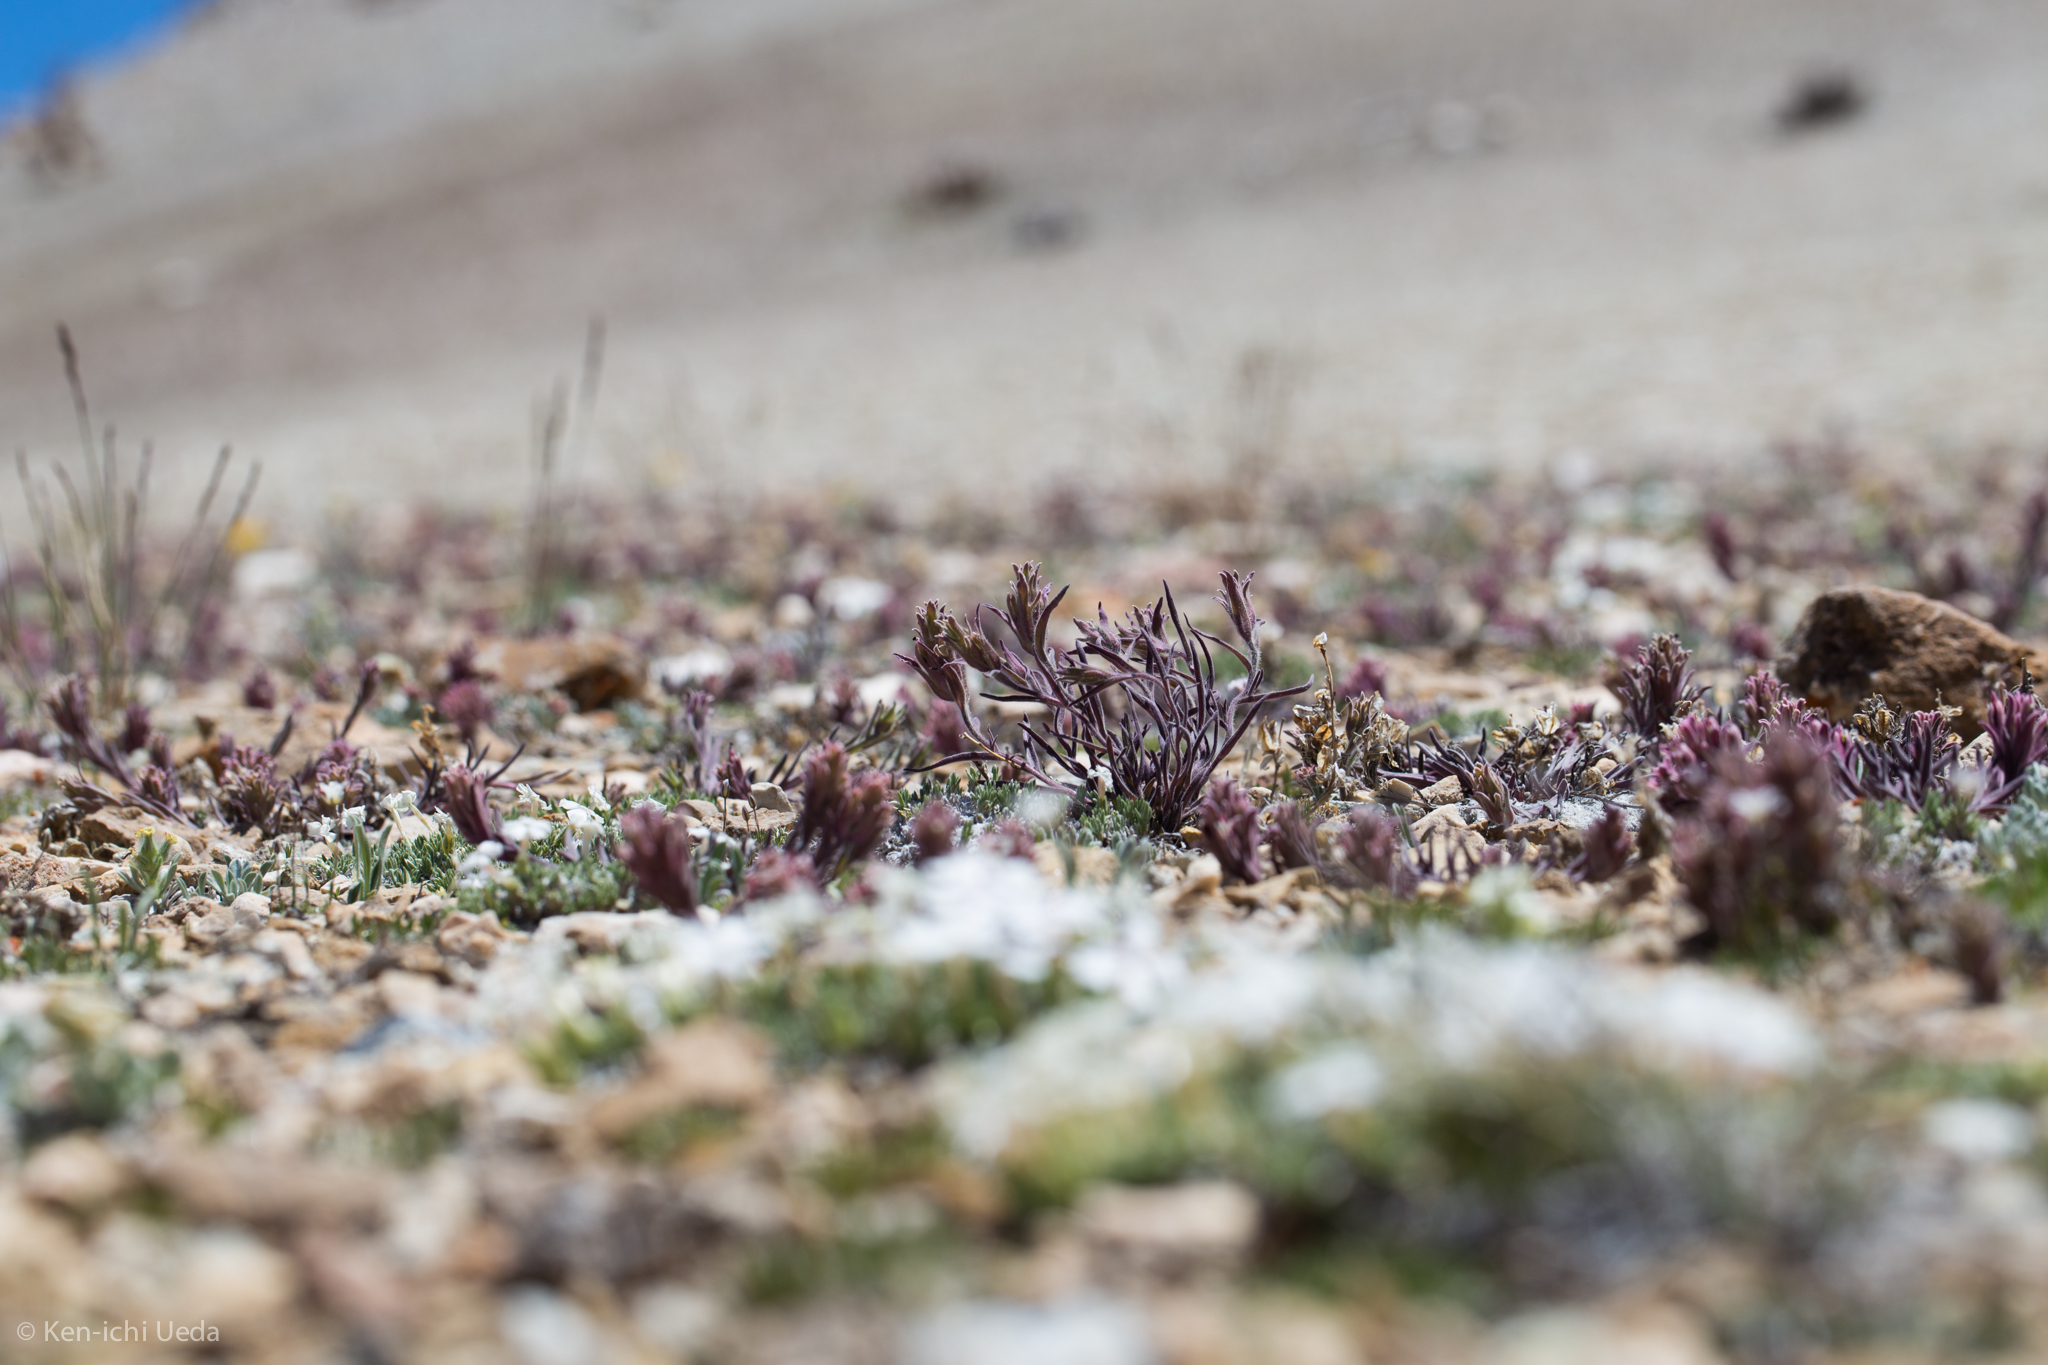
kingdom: Plantae
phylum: Tracheophyta
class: Magnoliopsida
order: Lamiales
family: Orobanchaceae
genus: Castilleja
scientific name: Castilleja nana
